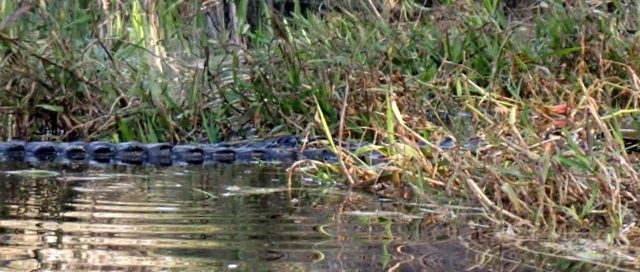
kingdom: Animalia
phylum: Chordata
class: Crocodylia
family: Alligatoridae
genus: Alligator
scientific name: Alligator mississippiensis
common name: American alligator
